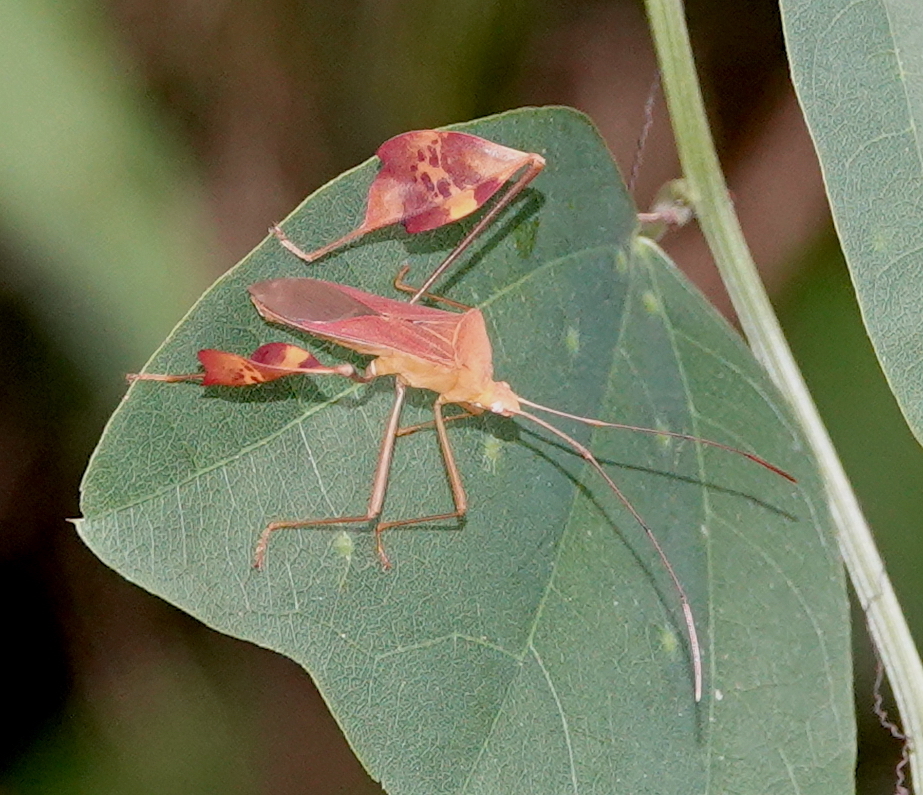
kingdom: Animalia
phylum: Arthropoda
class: Insecta
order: Hemiptera
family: Coreidae
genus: Bitta
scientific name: Bitta
